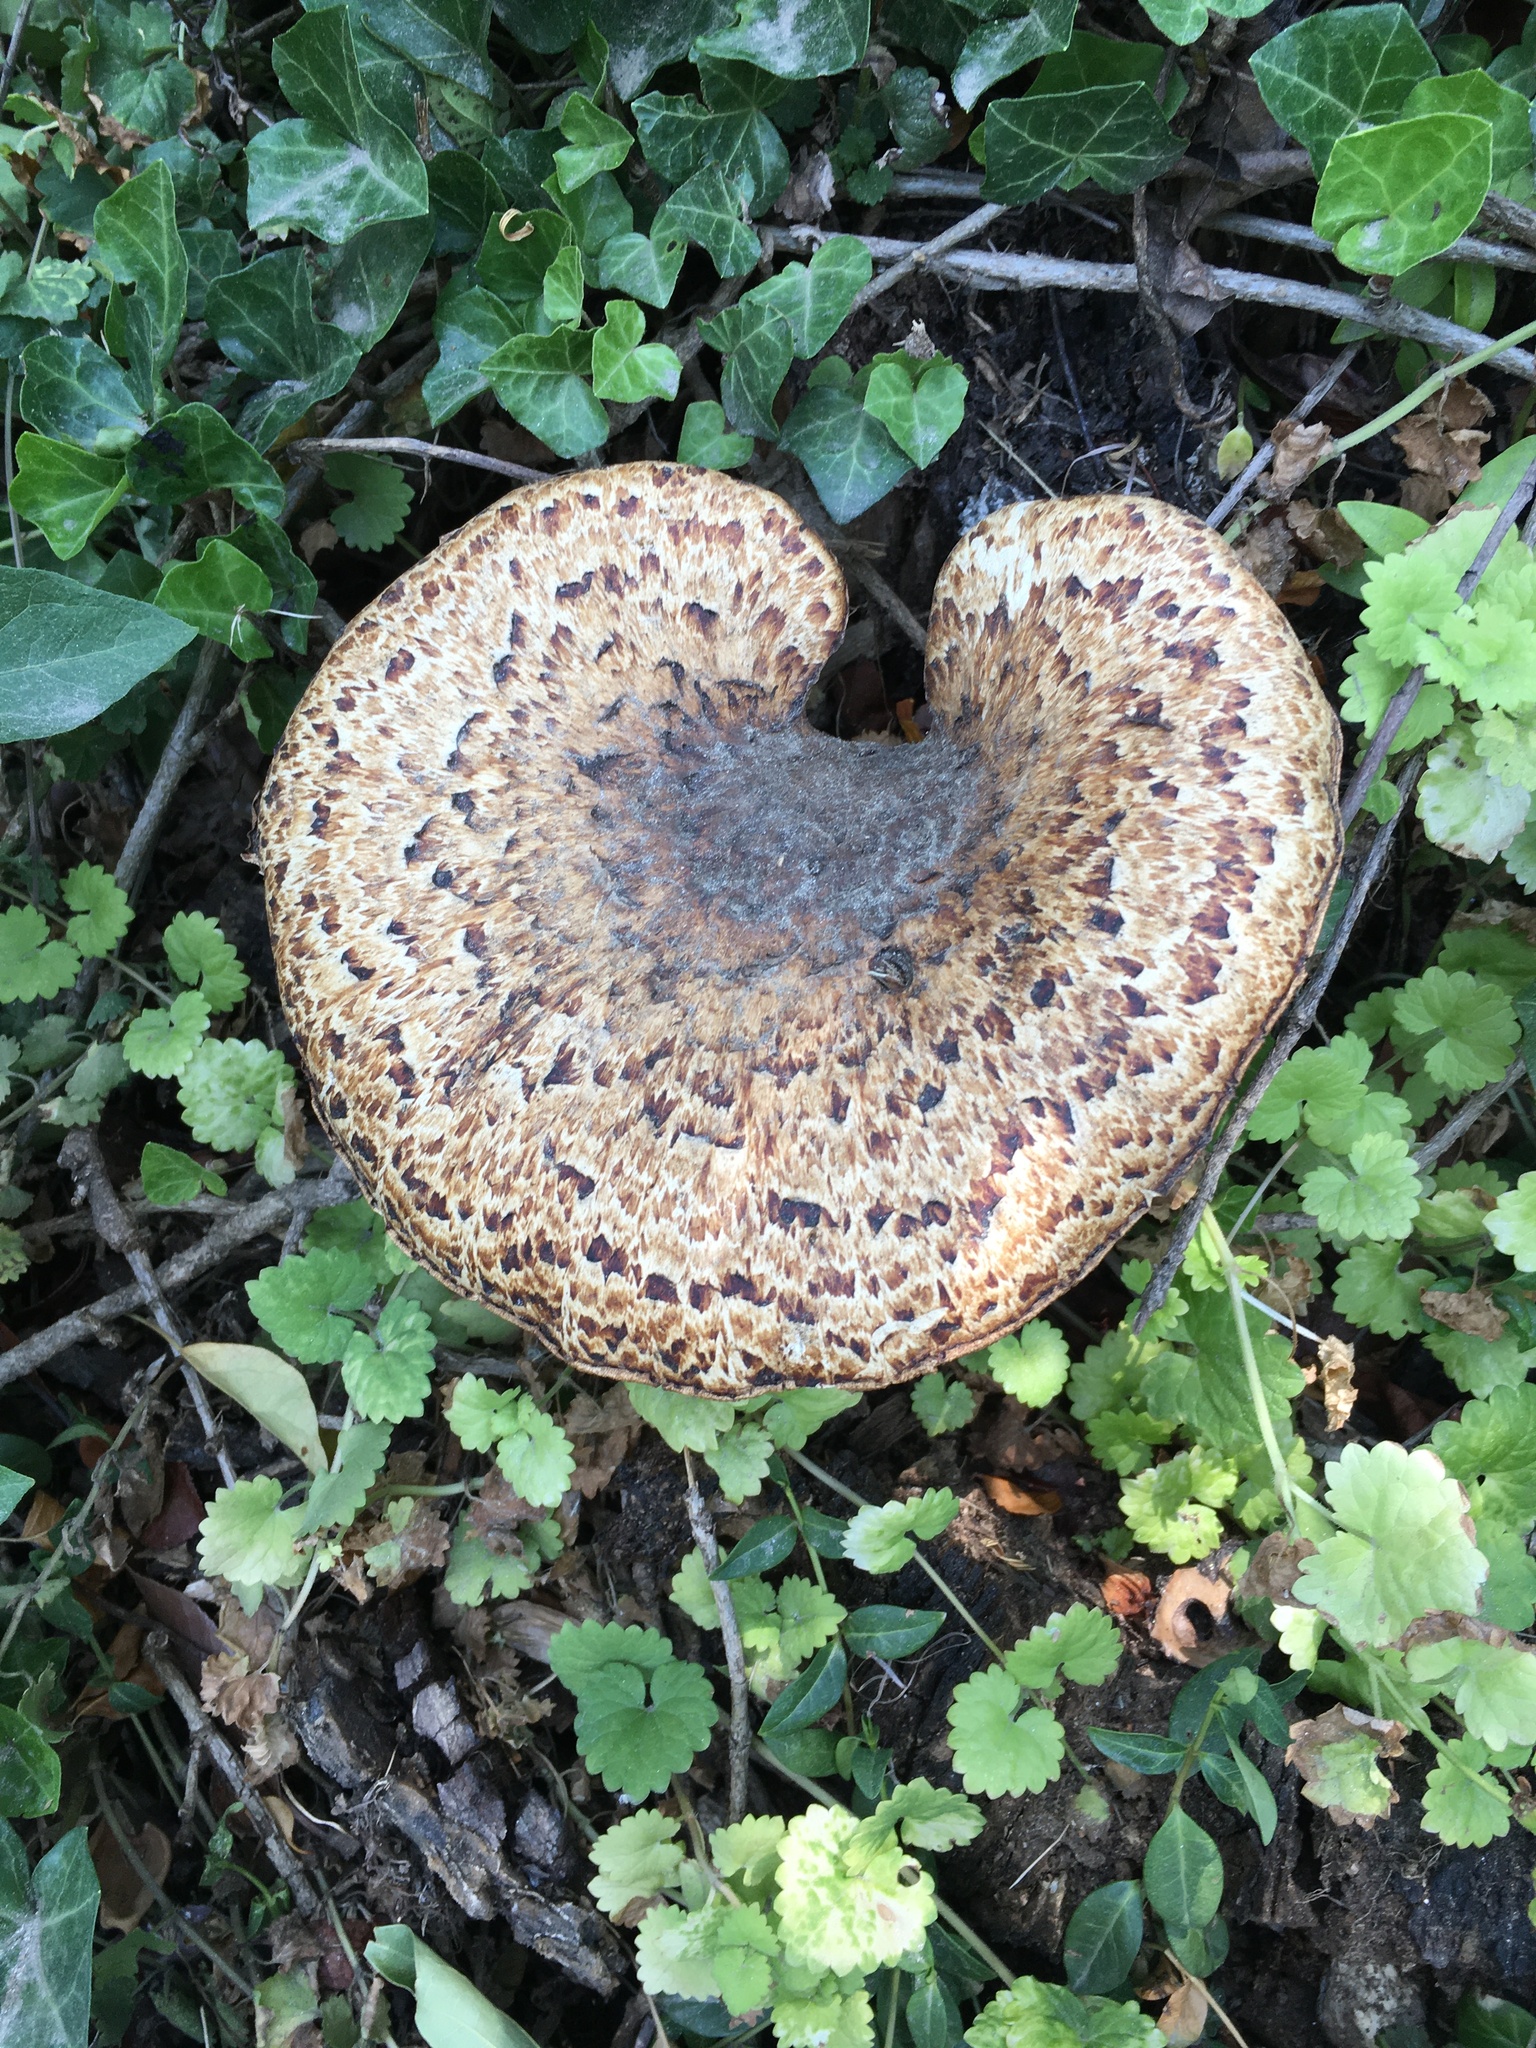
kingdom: Fungi
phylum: Basidiomycota
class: Agaricomycetes
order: Polyporales
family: Polyporaceae
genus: Cerioporus
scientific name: Cerioporus squamosus
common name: Dryad's saddle
